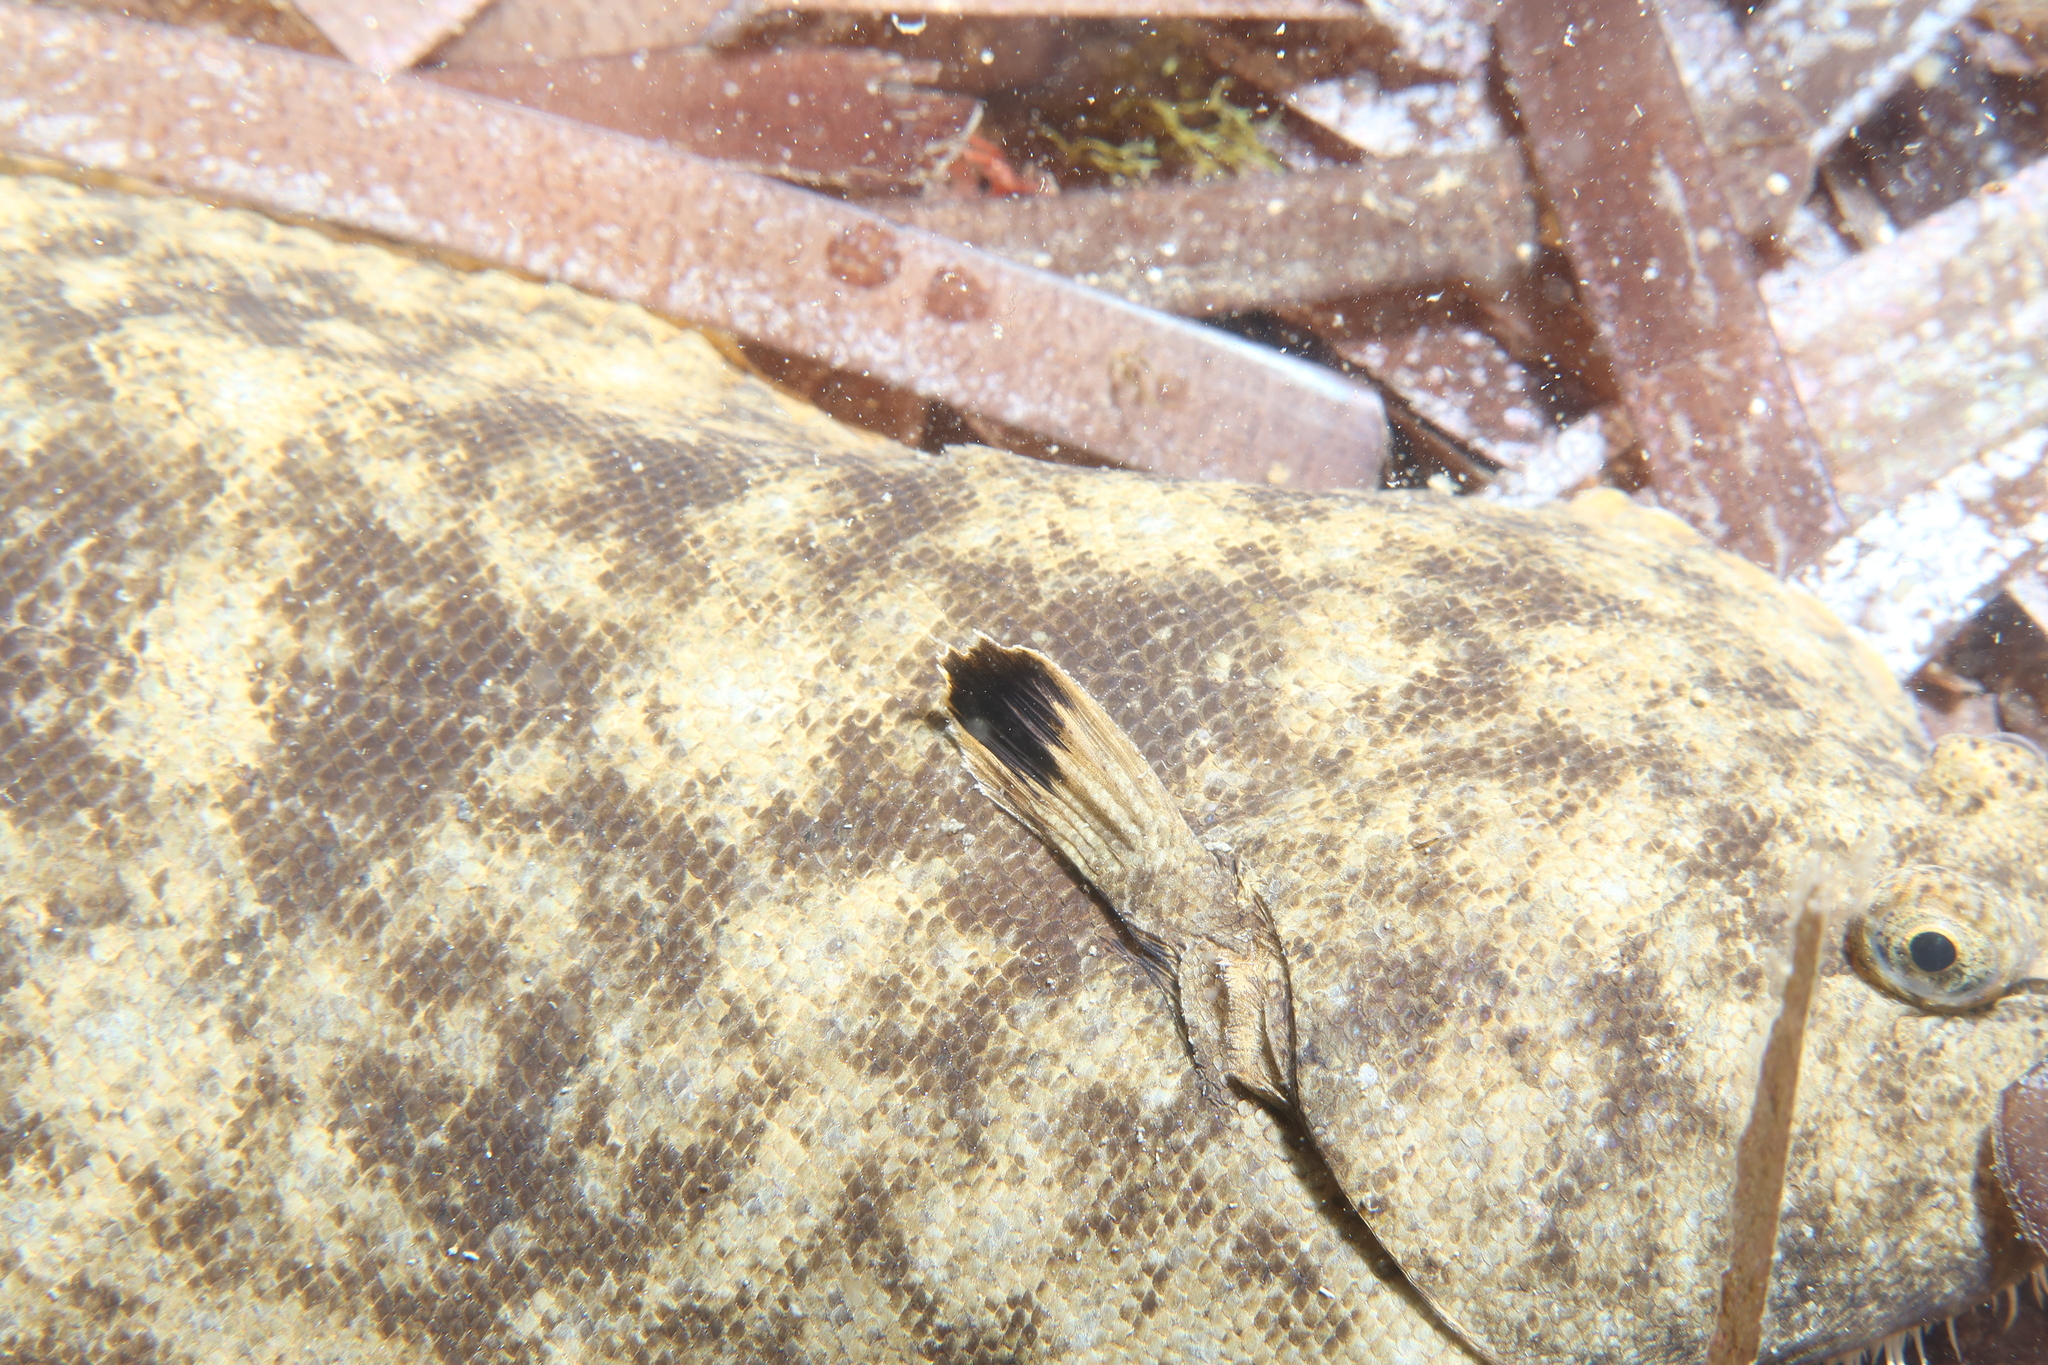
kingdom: Animalia
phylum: Chordata
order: Pleuronectiformes
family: Soleidae
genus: Solea
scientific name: Solea aegyptiaca
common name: Egyptian sole
